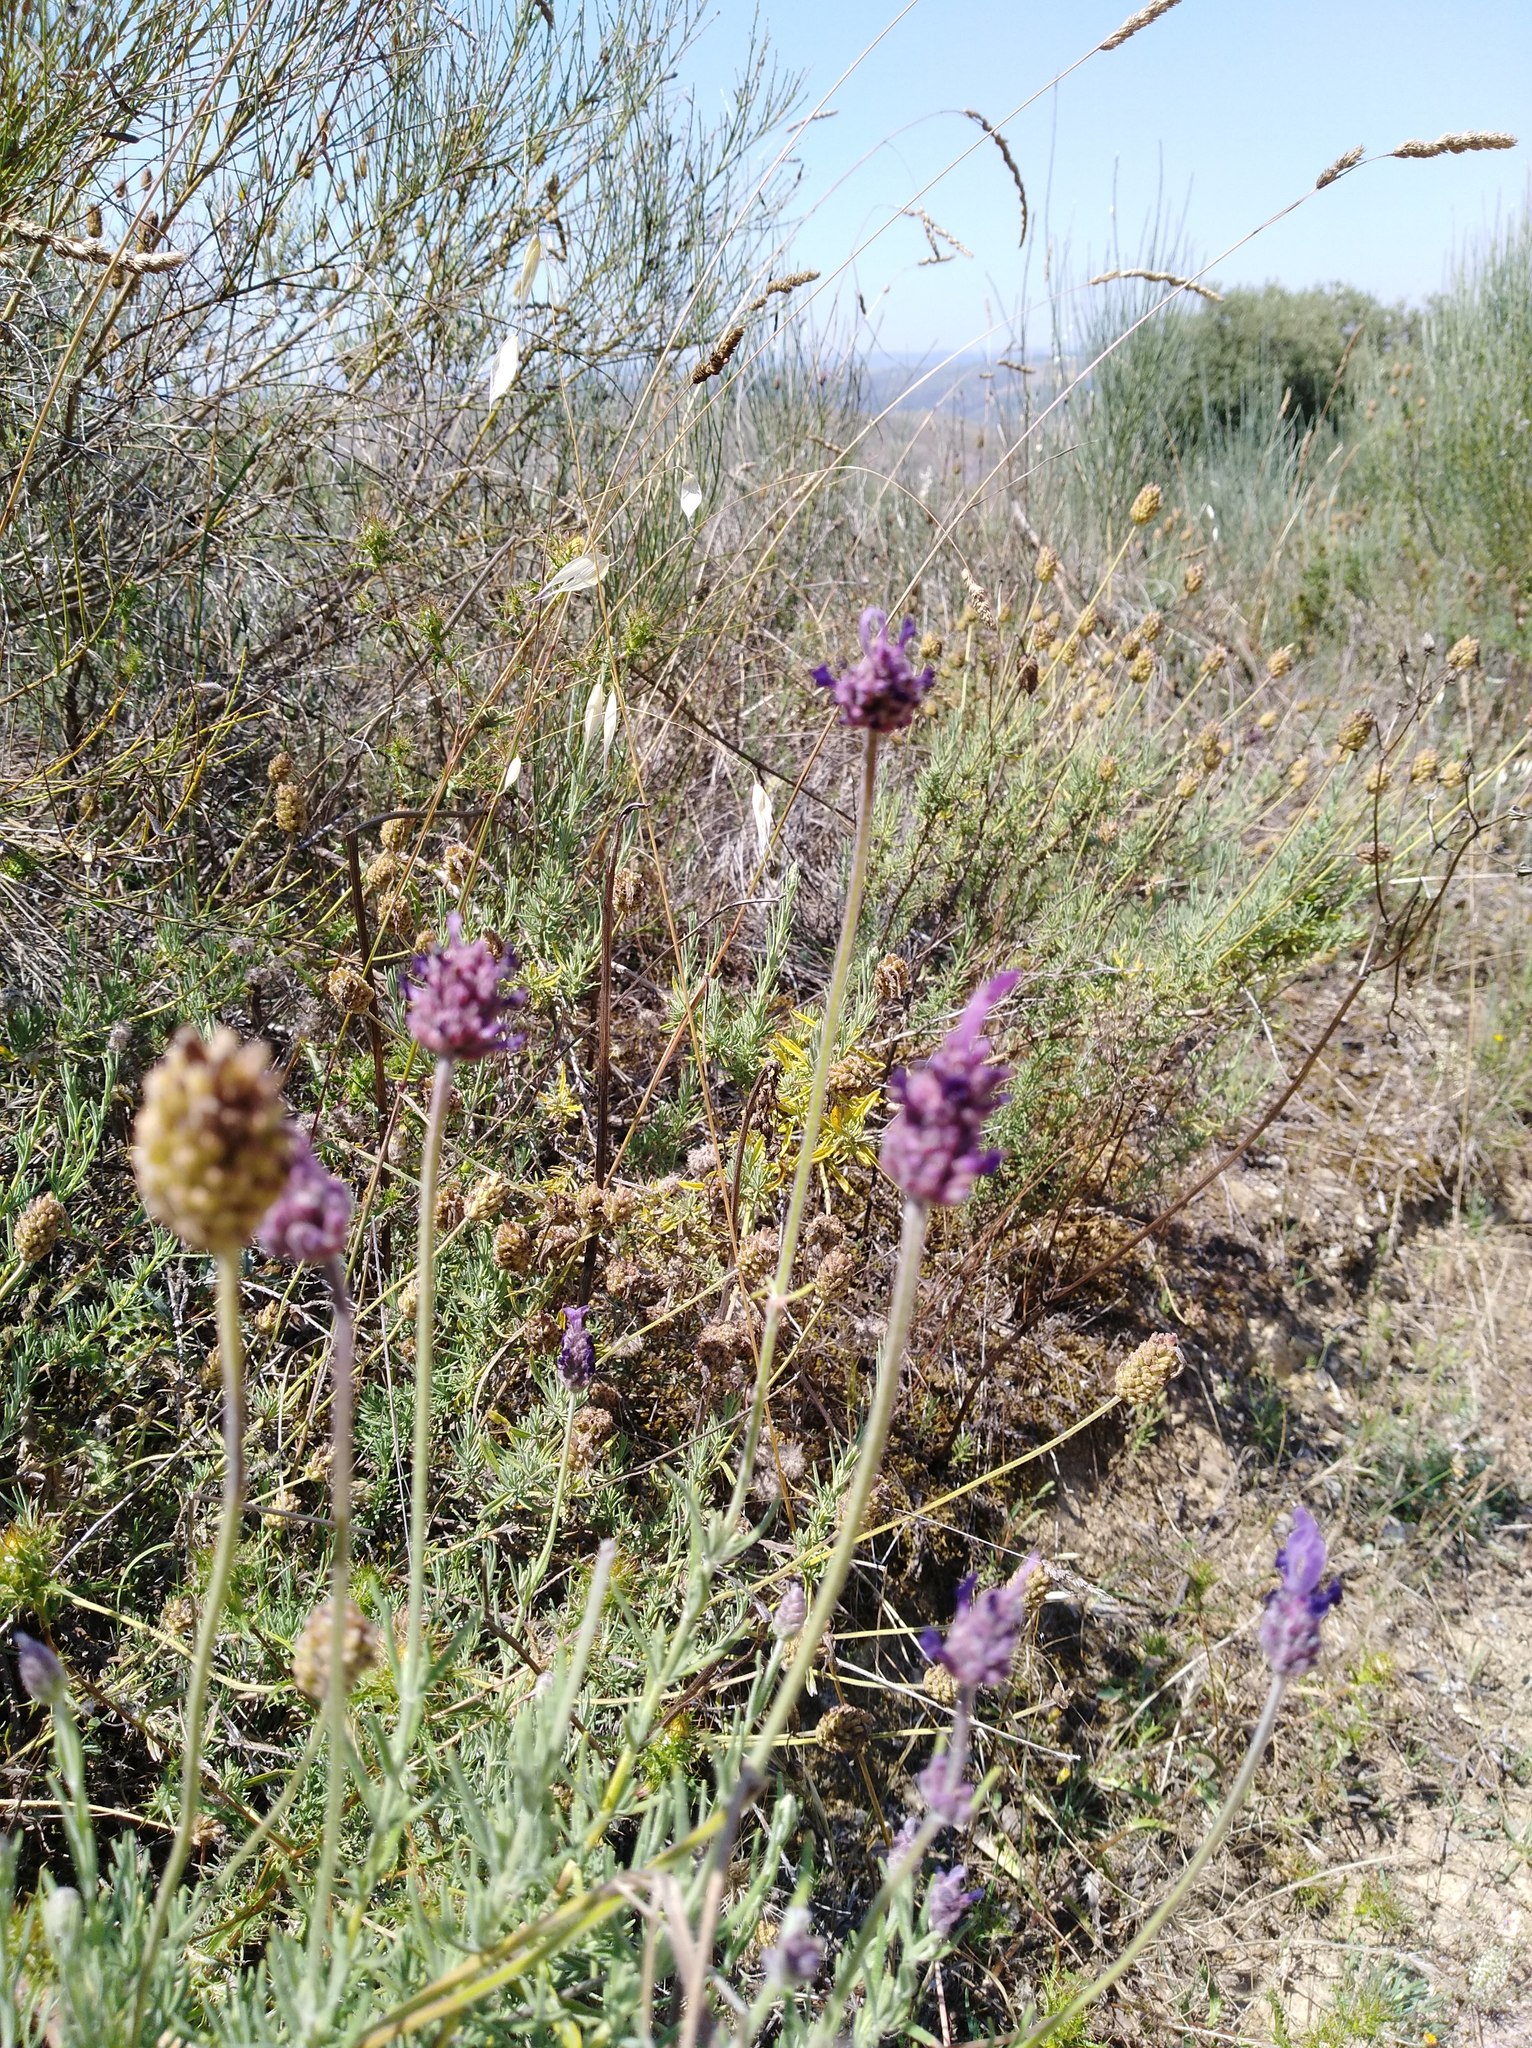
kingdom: Plantae
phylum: Tracheophyta
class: Magnoliopsida
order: Lamiales
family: Lamiaceae
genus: Lavandula
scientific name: Lavandula pedunculata
